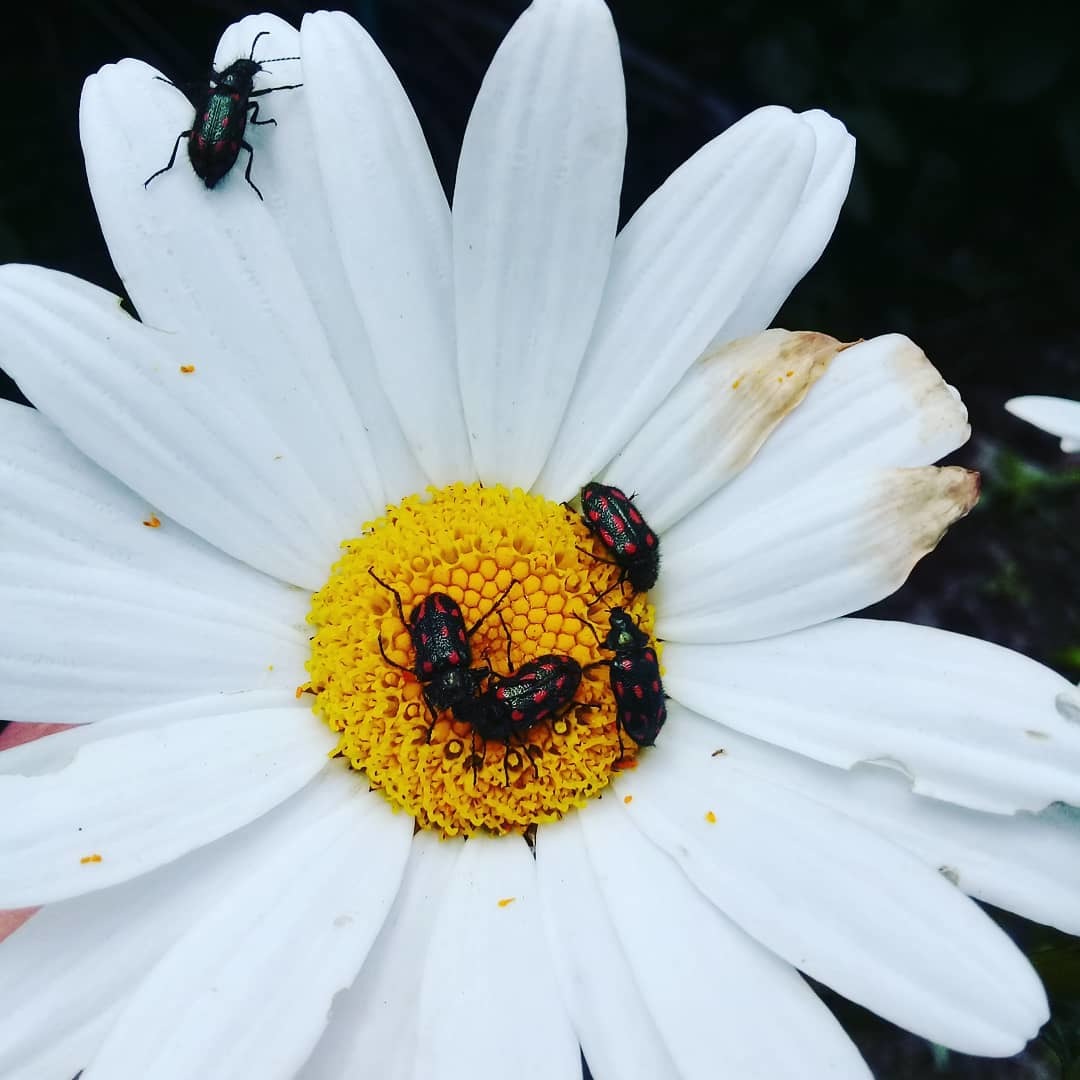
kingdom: Animalia
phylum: Arthropoda
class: Insecta
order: Coleoptera
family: Melyridae
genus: Astylus
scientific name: Astylus
